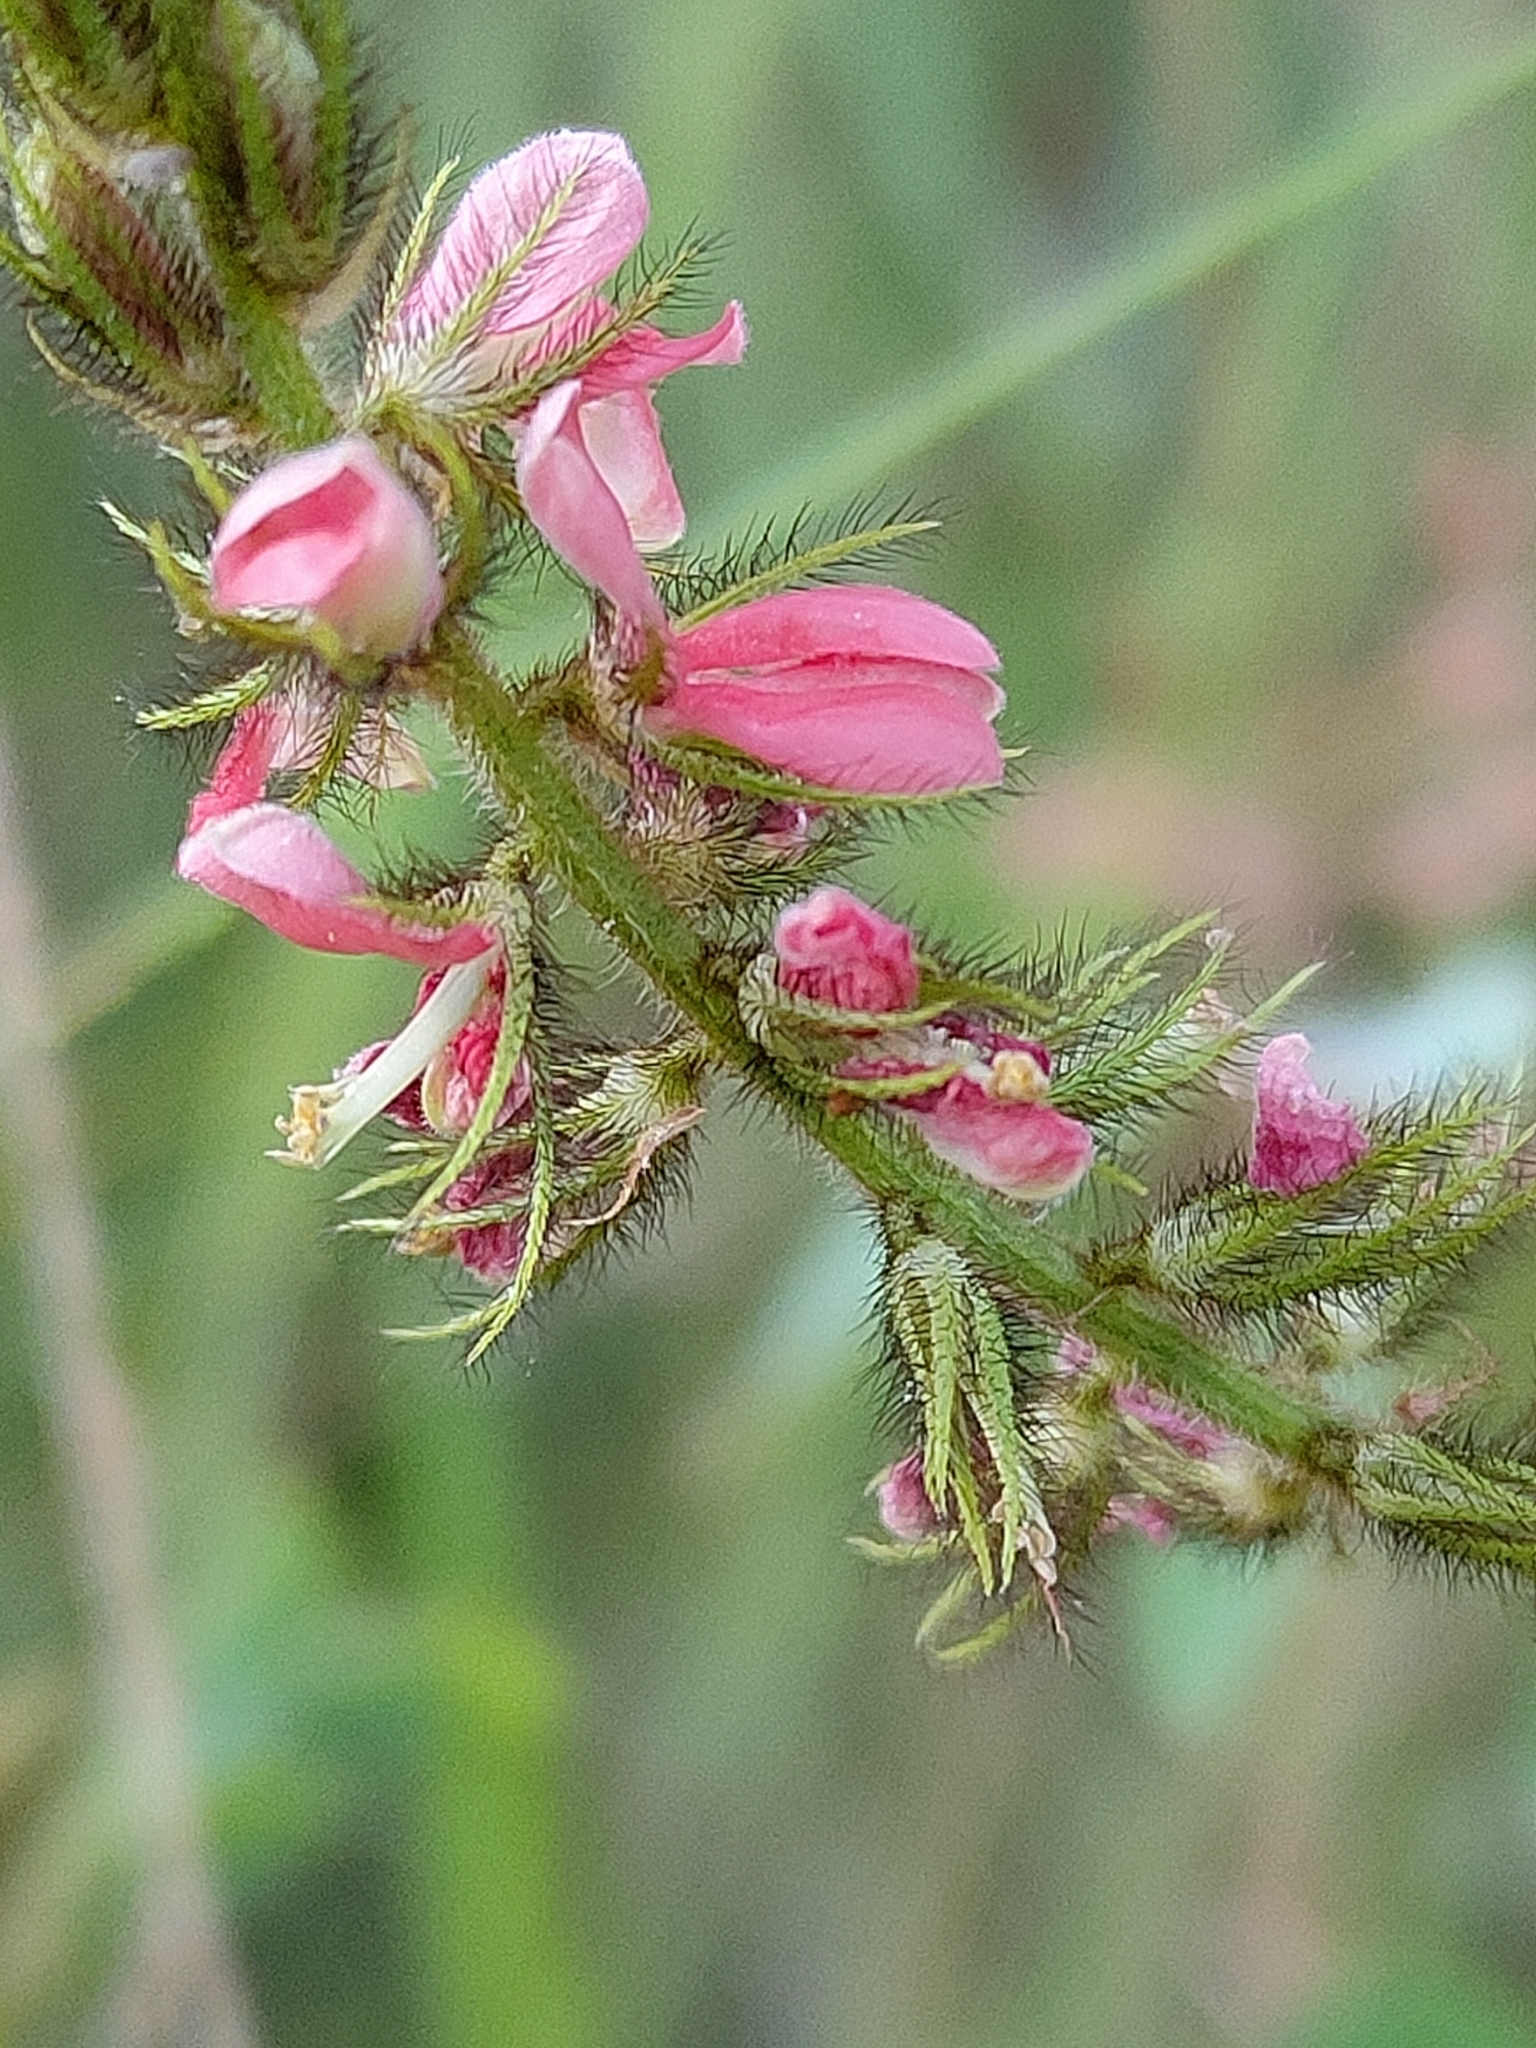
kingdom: Plantae
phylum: Tracheophyta
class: Magnoliopsida
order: Fabales
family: Fabaceae
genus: Indigofera
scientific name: Indigofera hirsuta
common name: Hairy indigo
